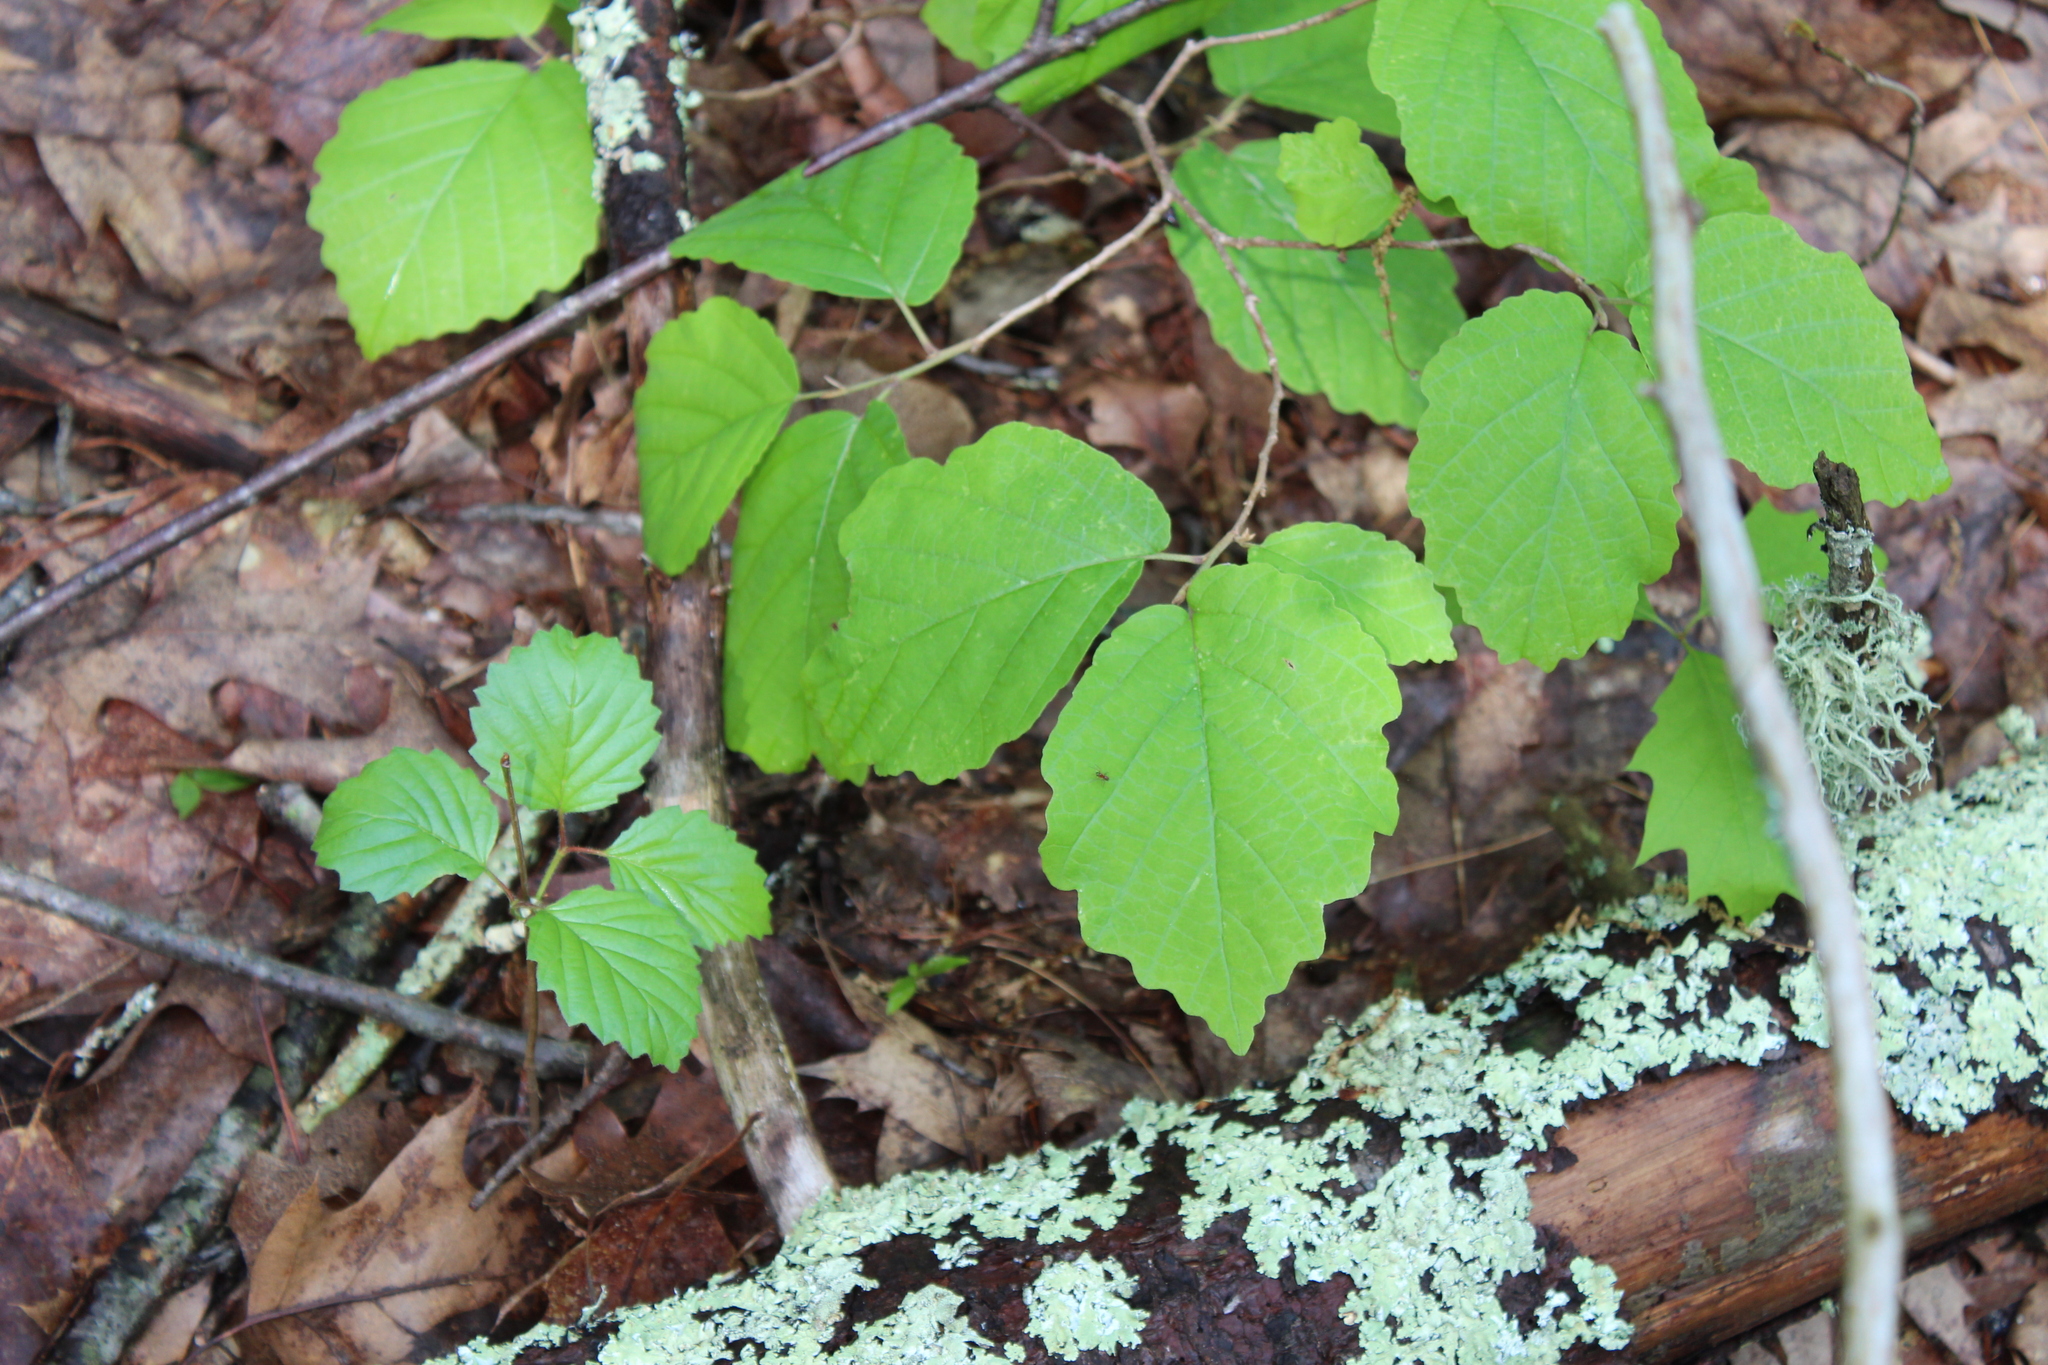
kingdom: Plantae
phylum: Tracheophyta
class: Magnoliopsida
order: Saxifragales
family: Hamamelidaceae
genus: Hamamelis
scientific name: Hamamelis virginiana
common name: Witch-hazel
